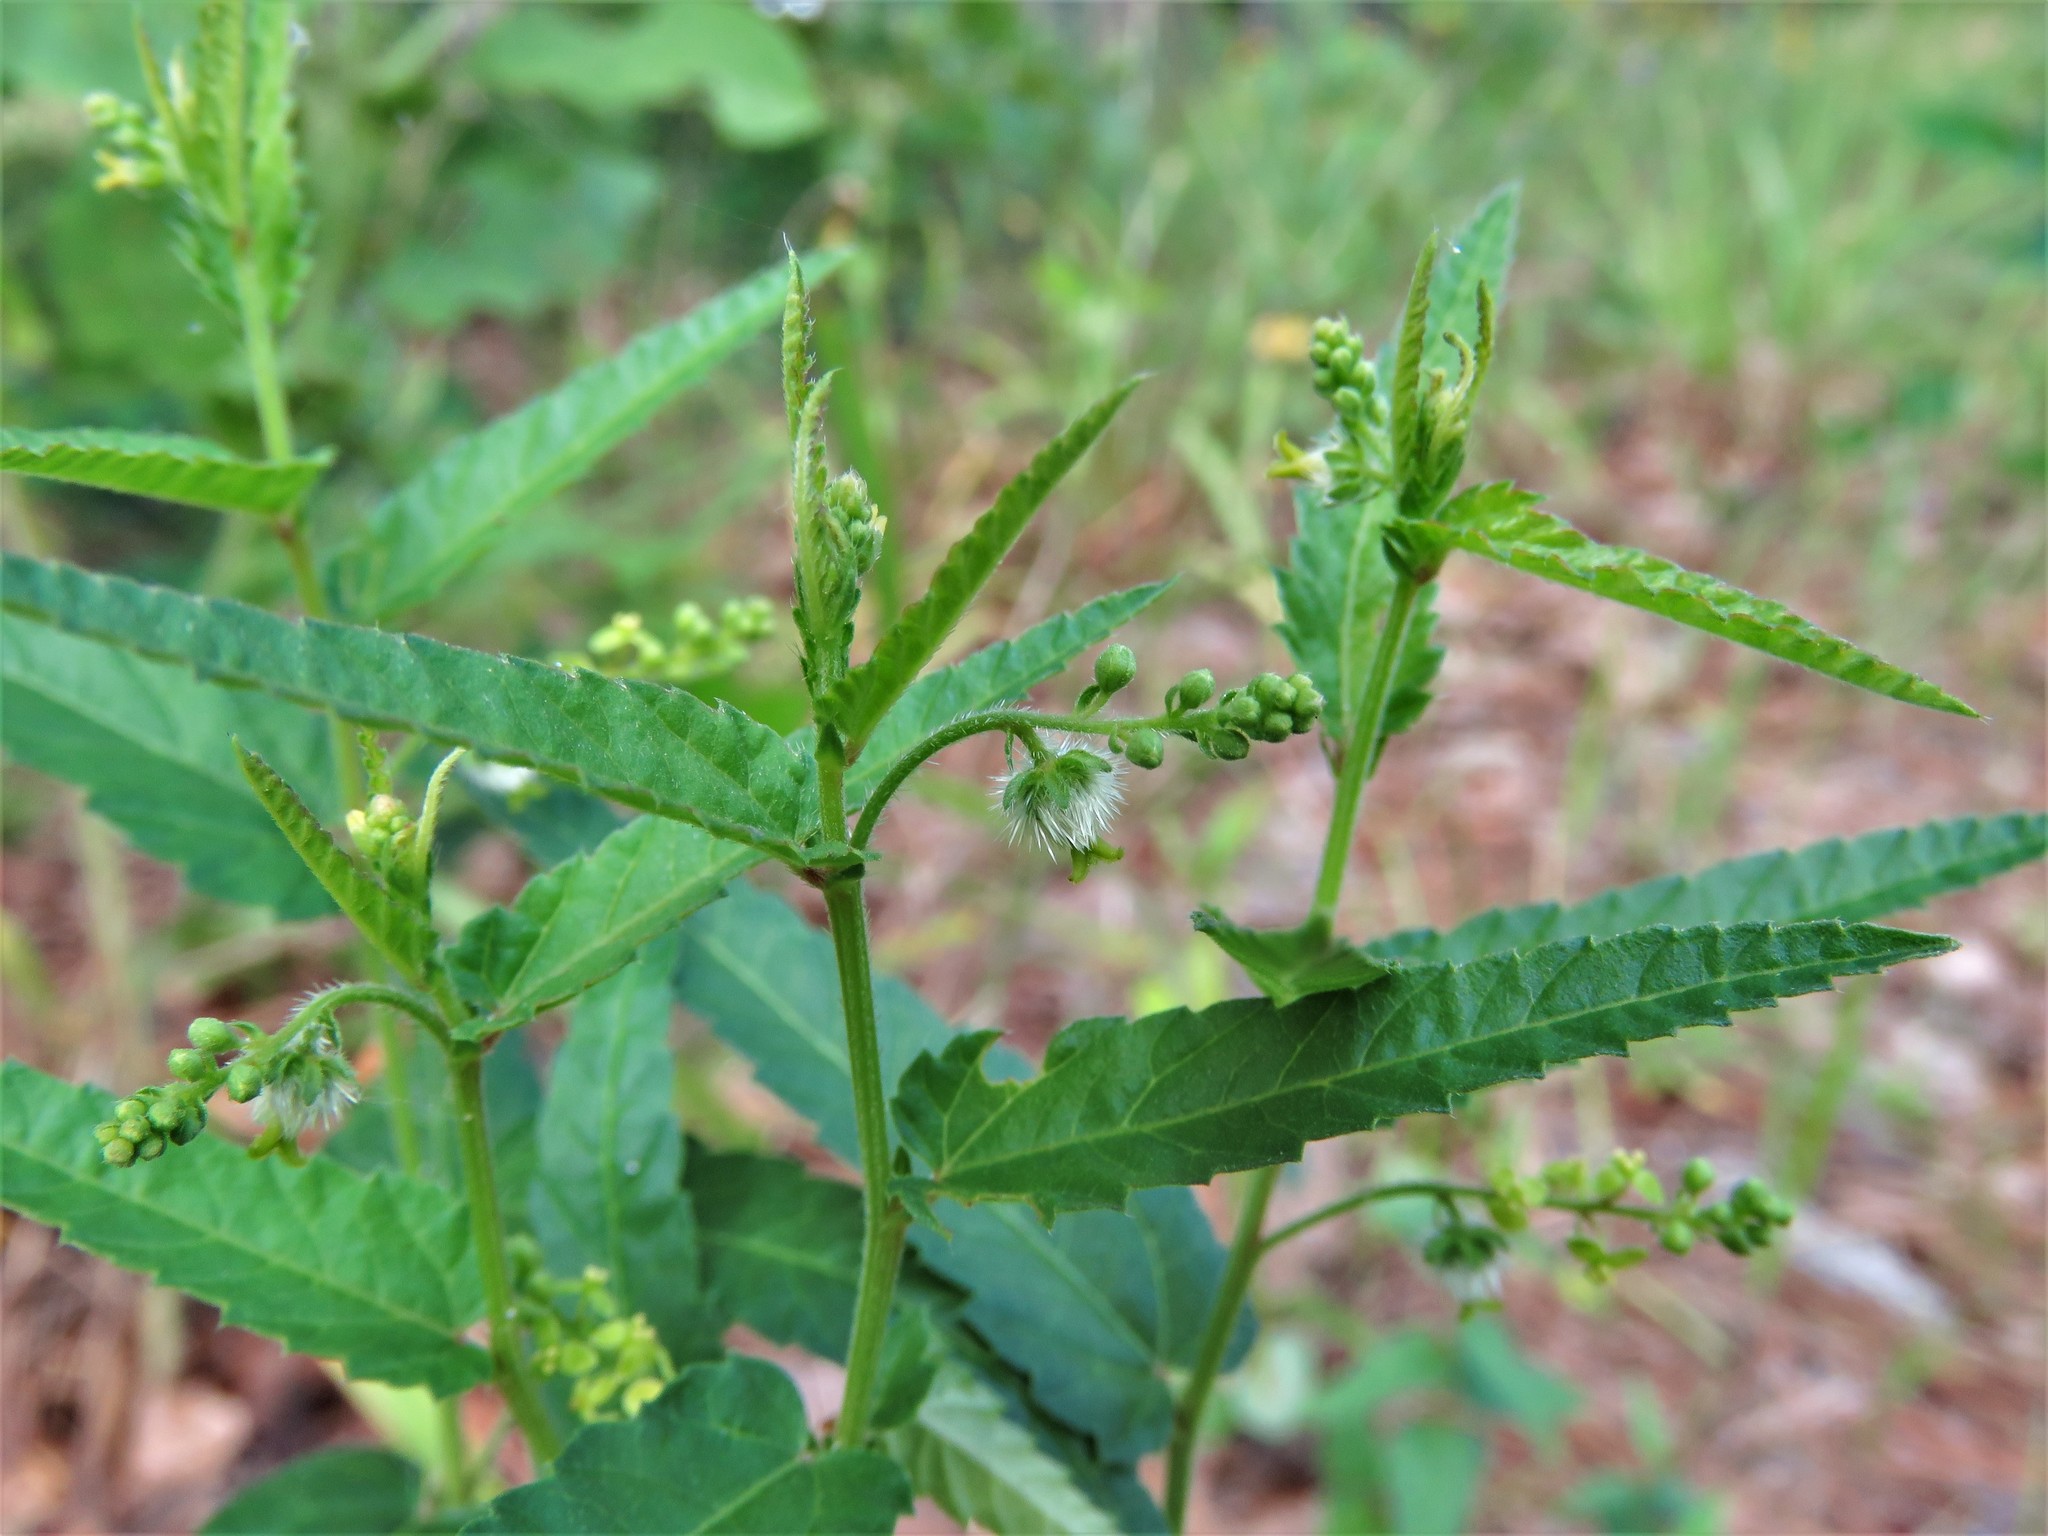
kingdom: Plantae
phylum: Tracheophyta
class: Magnoliopsida
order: Malpighiales
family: Euphorbiaceae
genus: Tragia
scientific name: Tragia urticifolia
